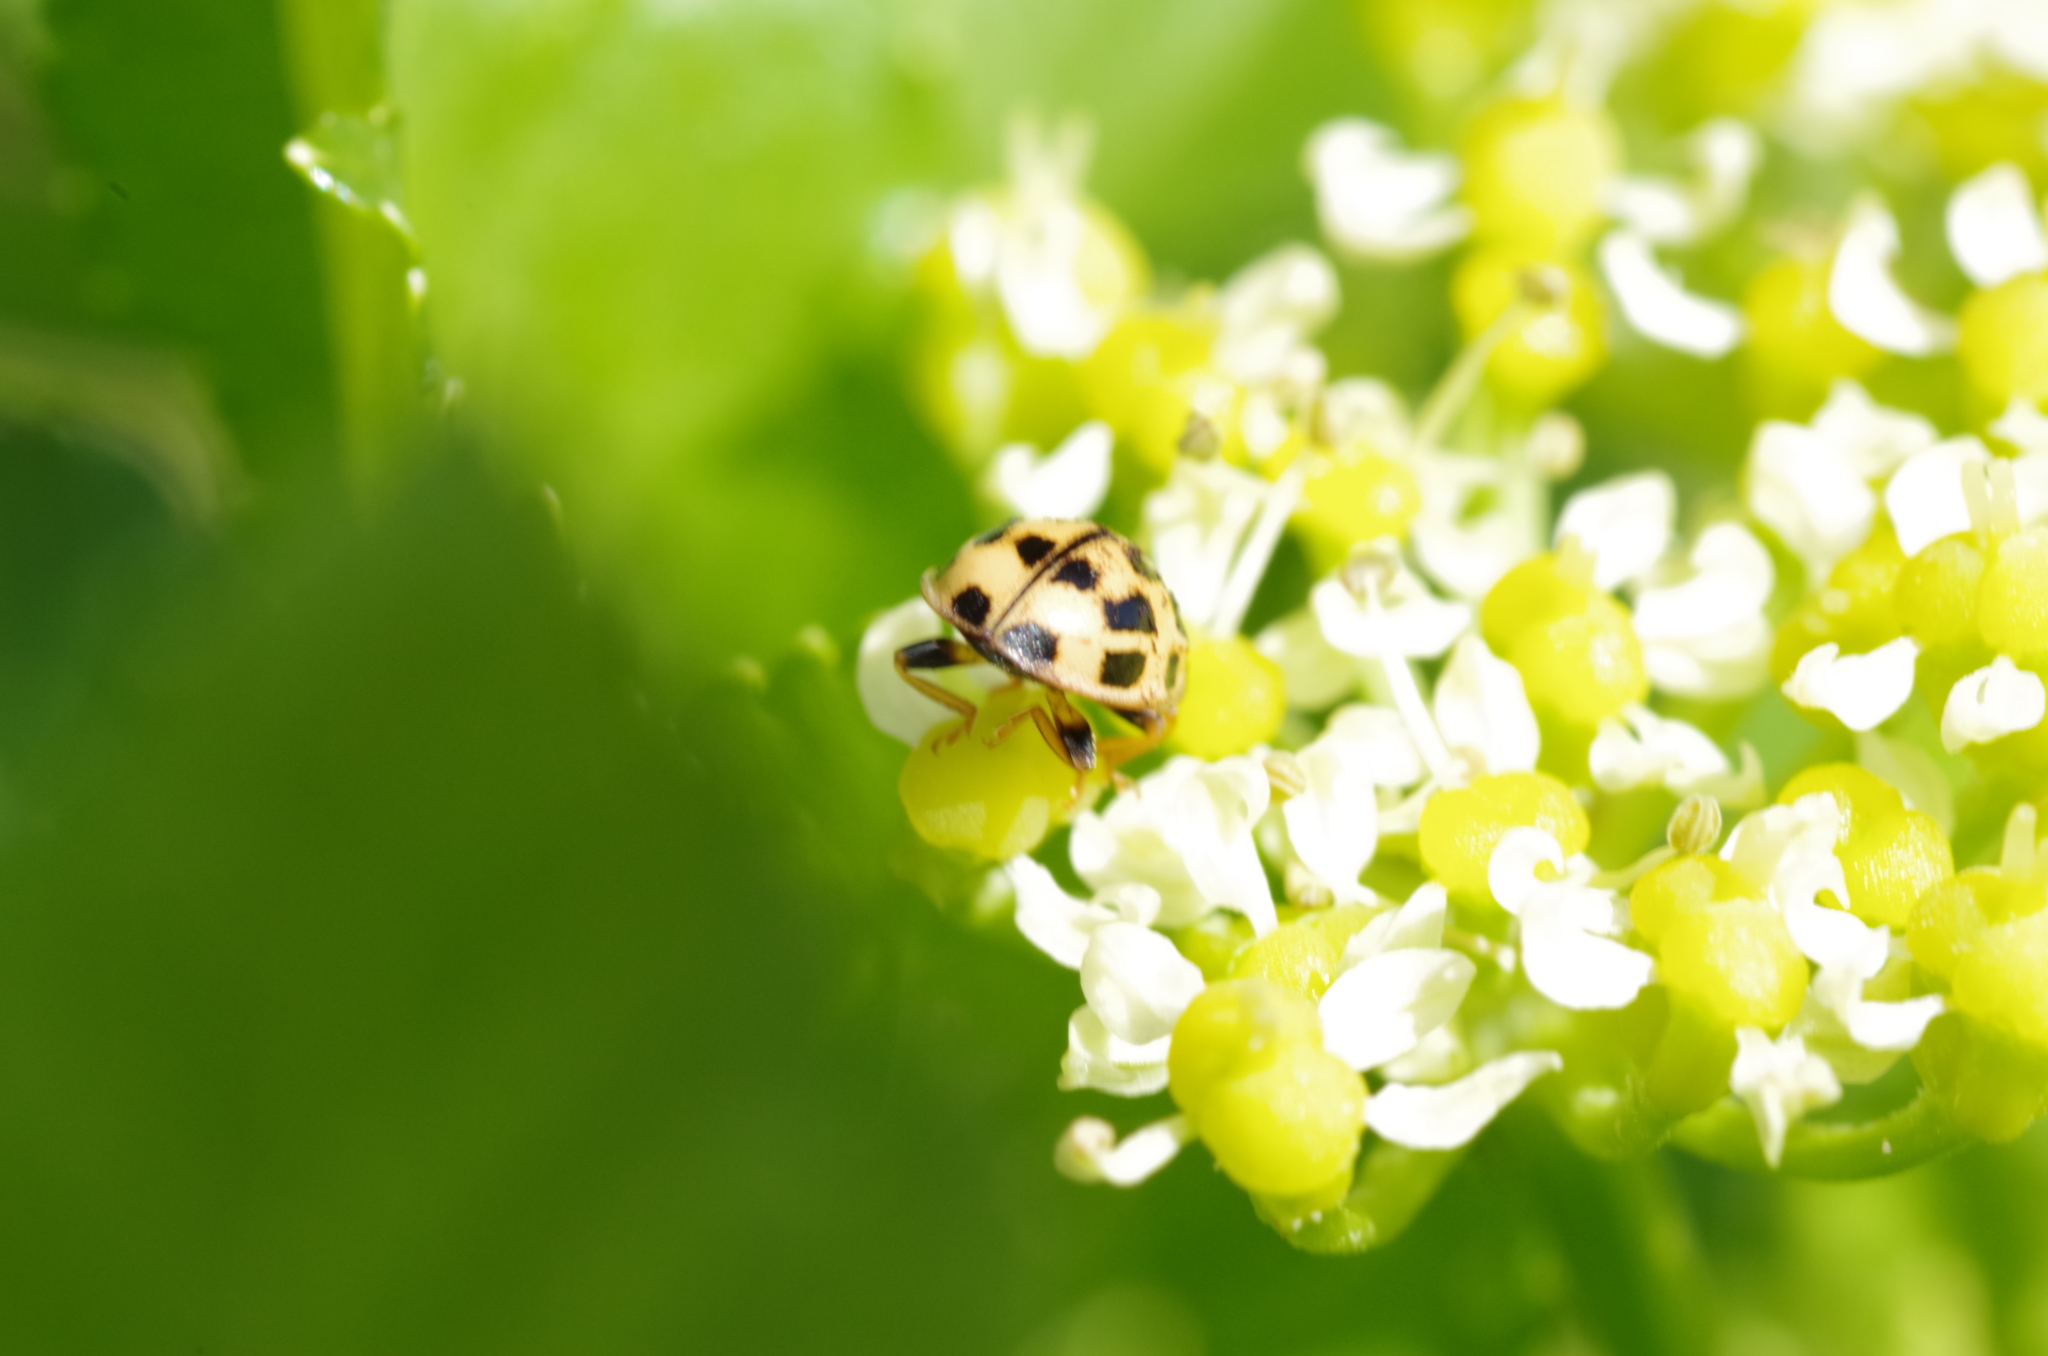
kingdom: Animalia
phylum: Arthropoda
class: Insecta
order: Coleoptera
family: Coccinellidae
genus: Propylaea
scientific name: Propylaea quatuordecimpunctata
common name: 14-spotted ladybird beetle
